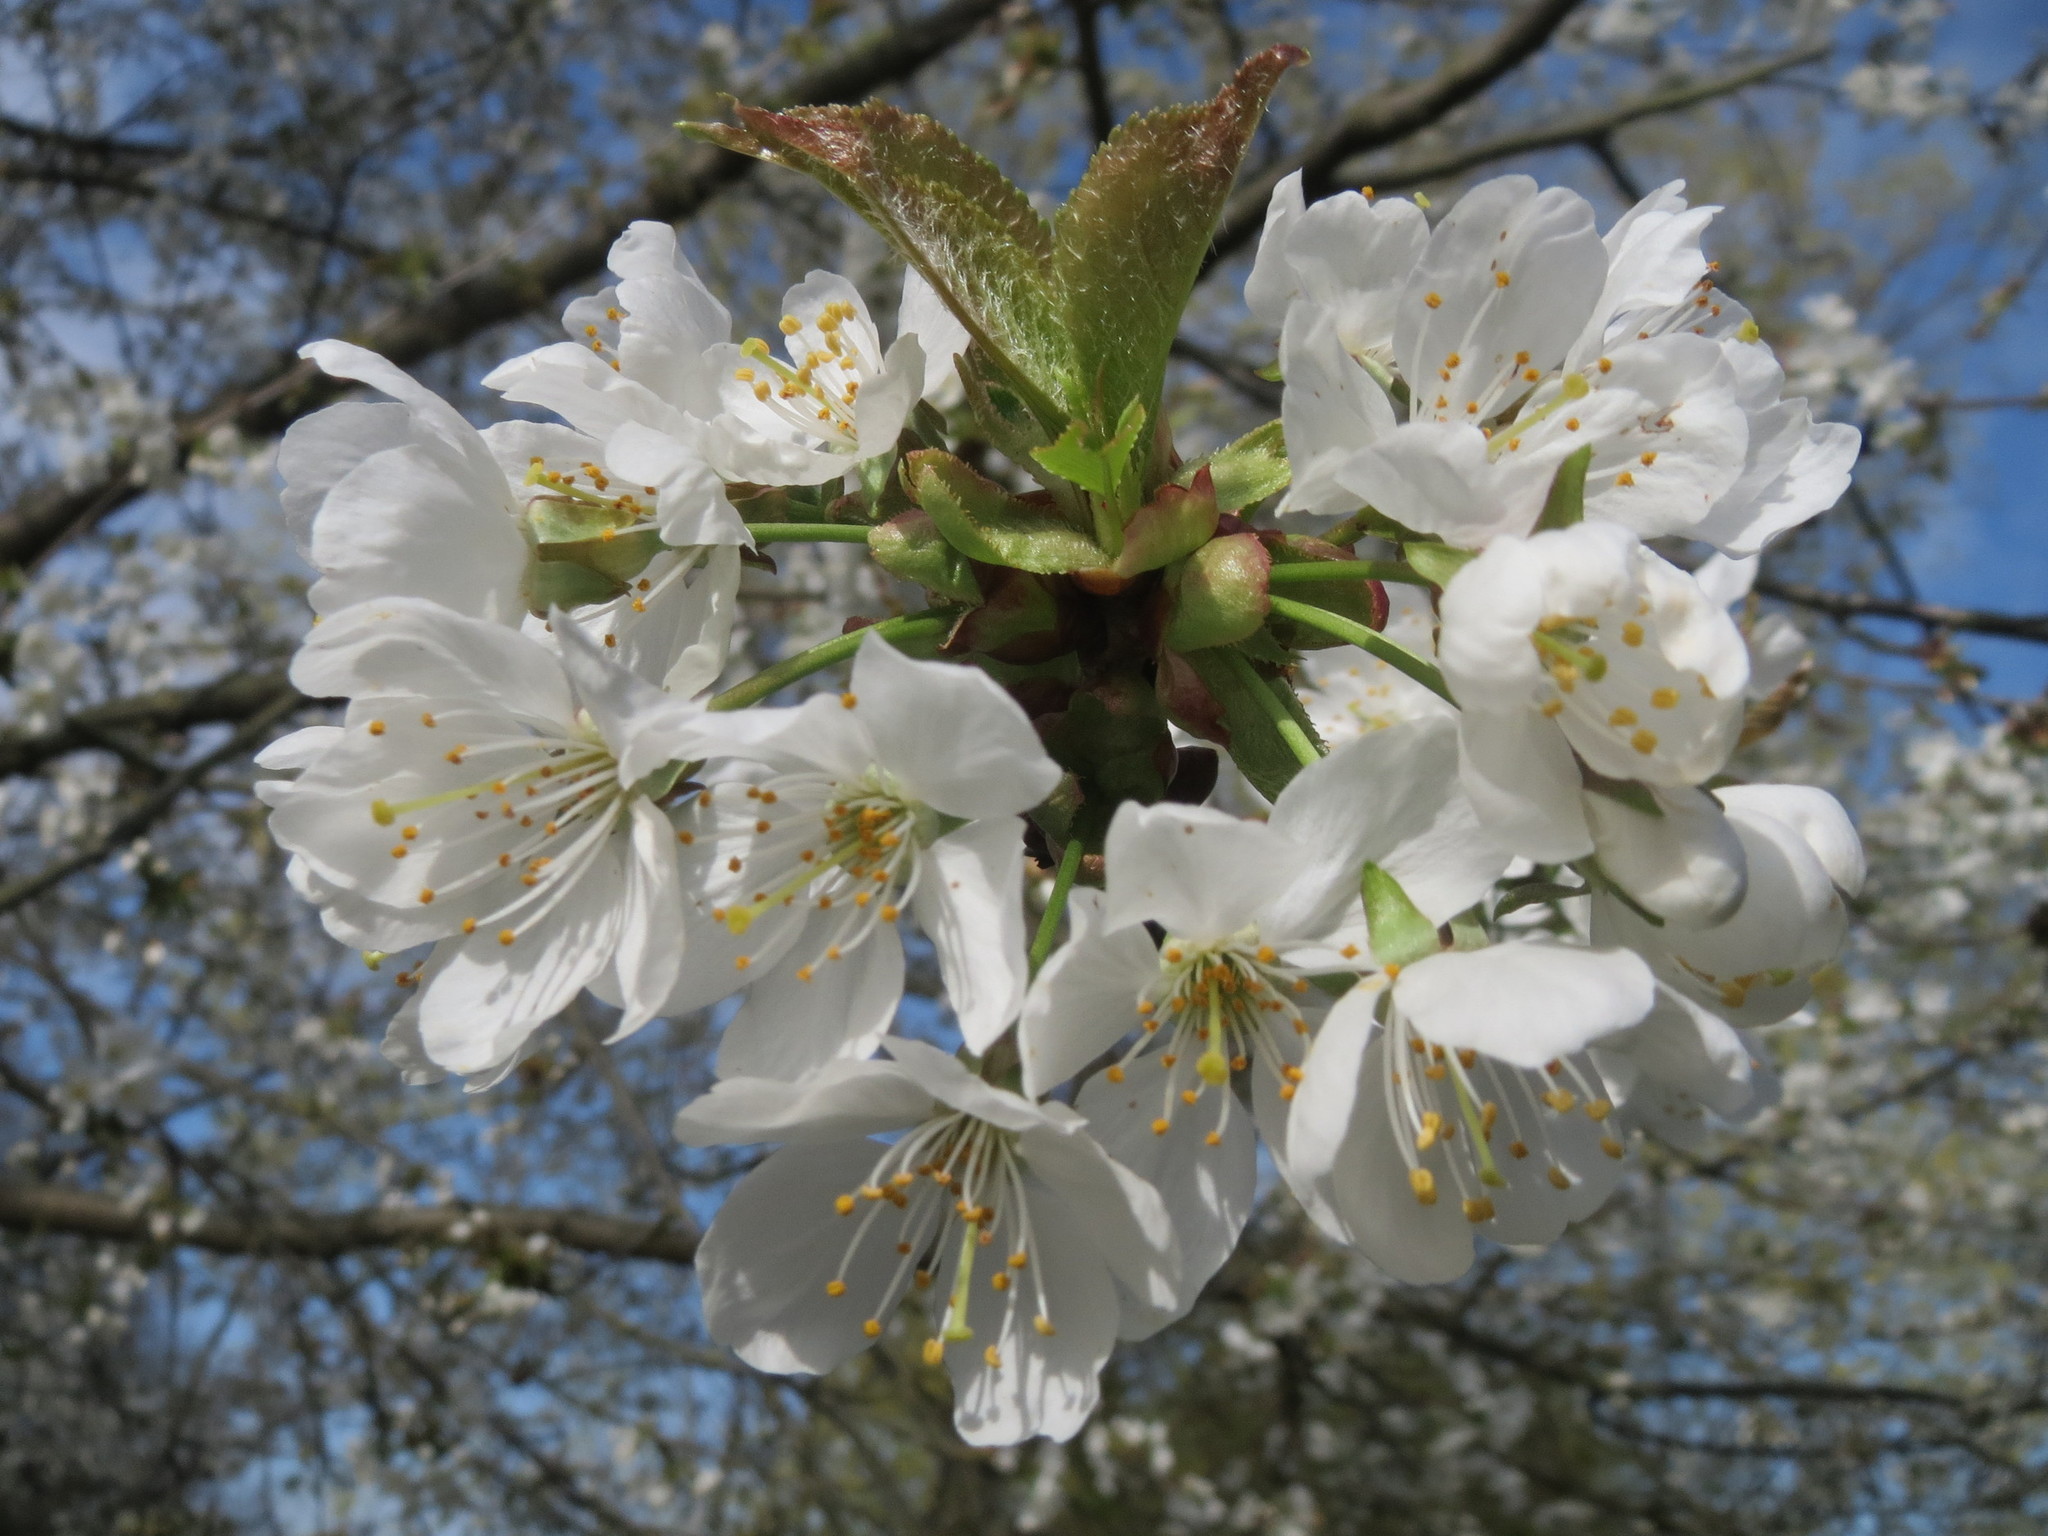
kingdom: Plantae
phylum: Tracheophyta
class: Magnoliopsida
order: Rosales
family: Rosaceae
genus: Prunus
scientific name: Prunus avium
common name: Sweet cherry
